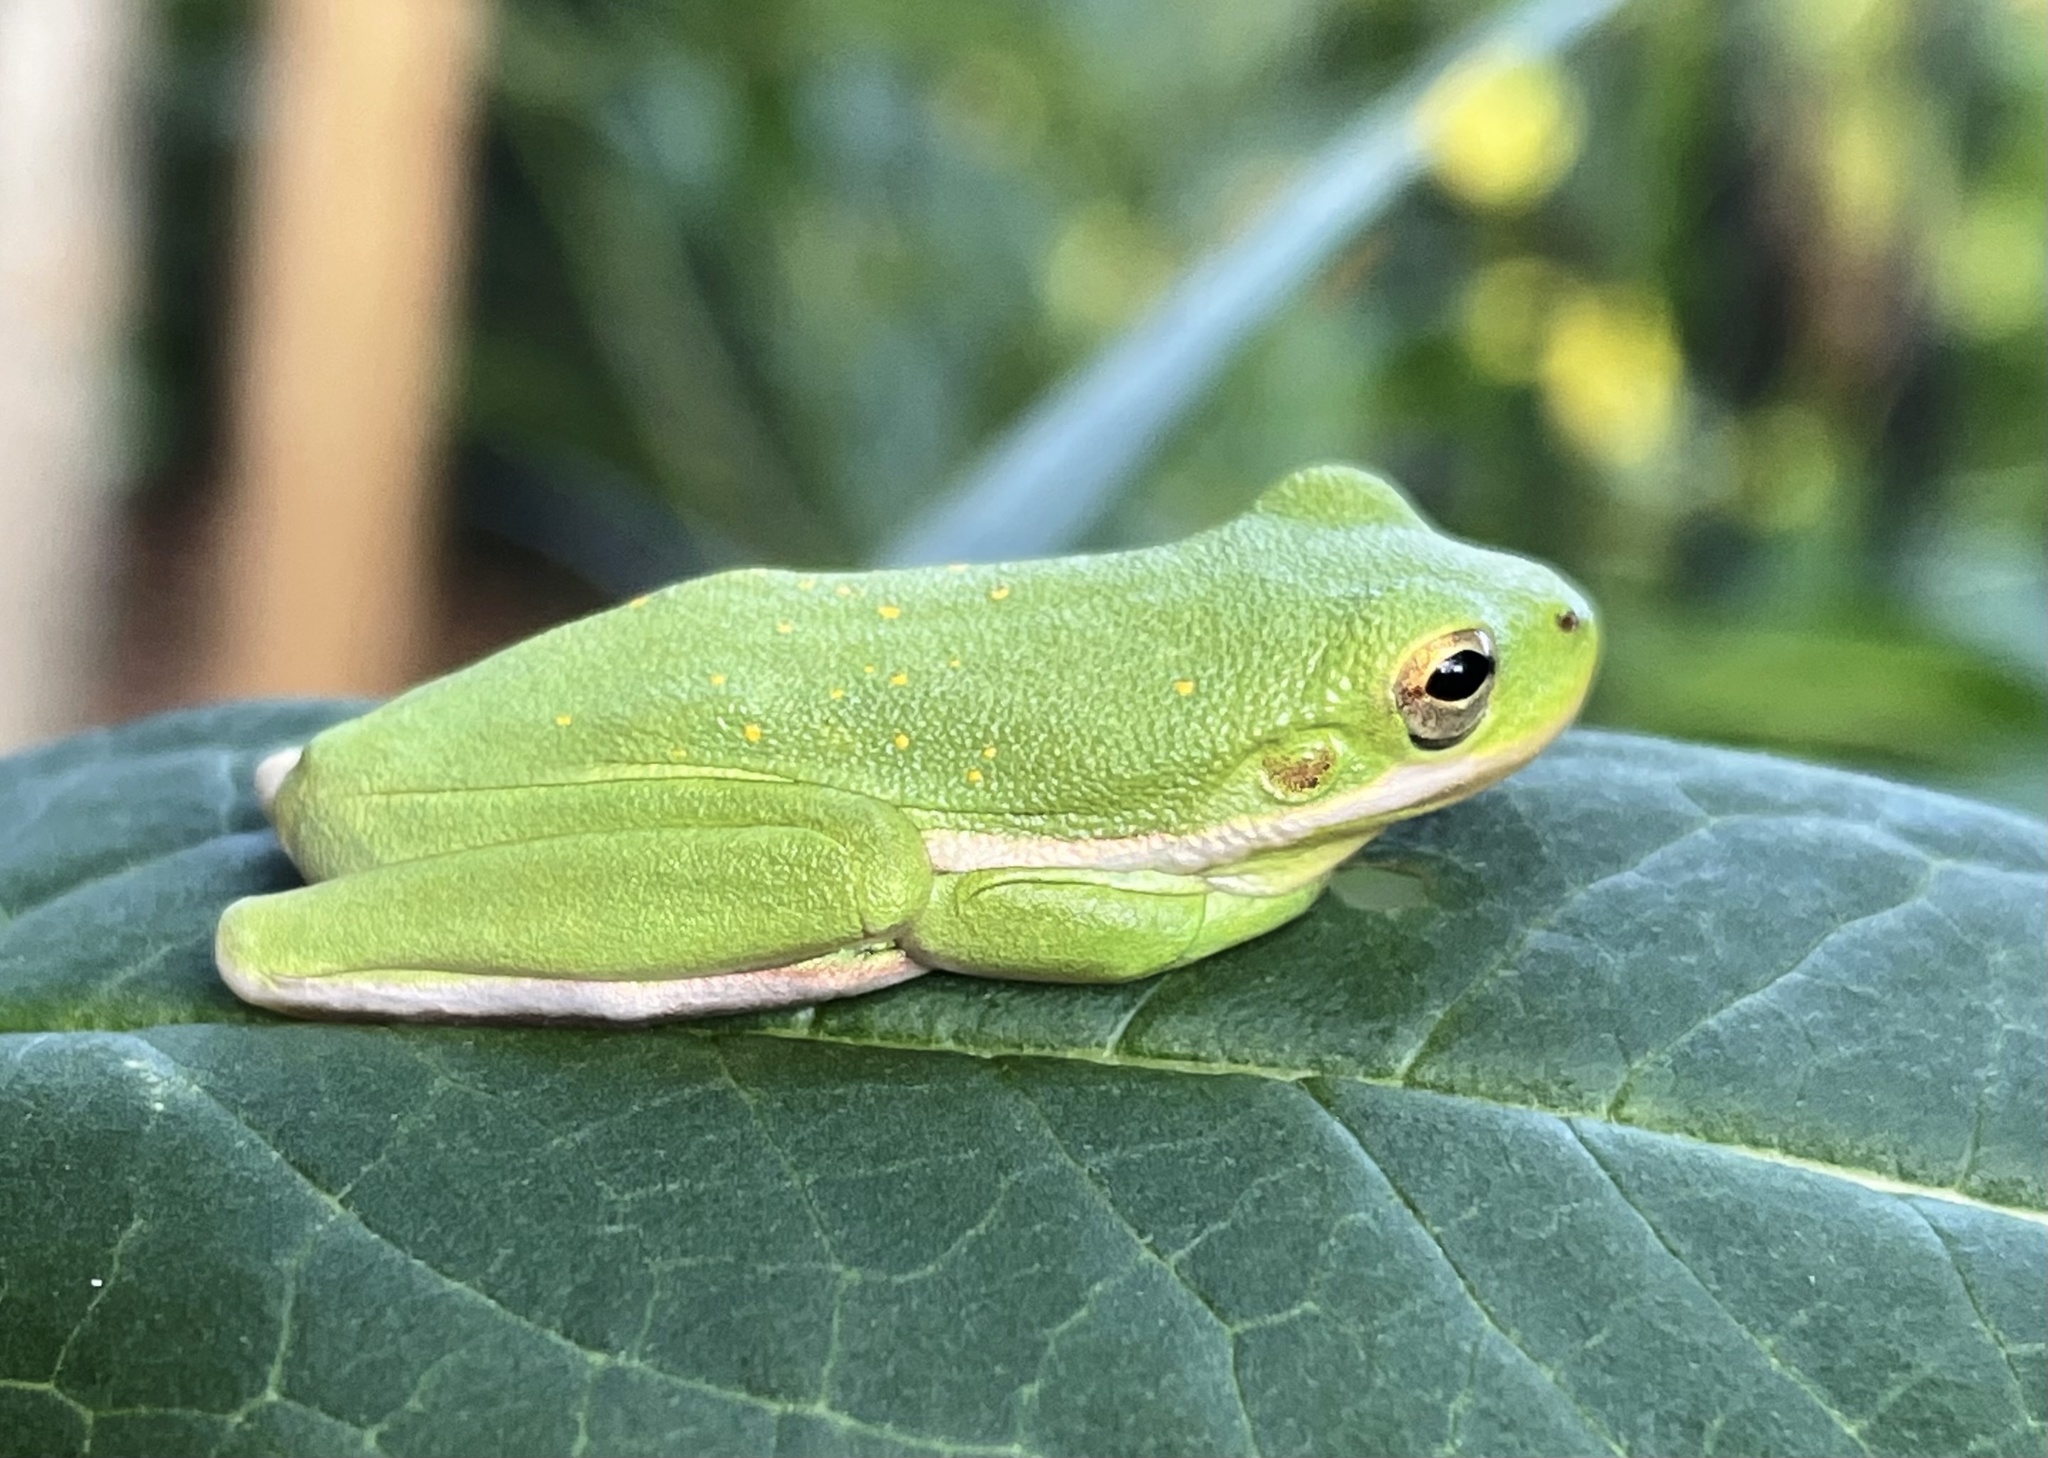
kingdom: Animalia
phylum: Chordata
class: Amphibia
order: Anura
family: Hylidae
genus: Dryophytes
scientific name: Dryophytes cinereus
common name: Green treefrog
